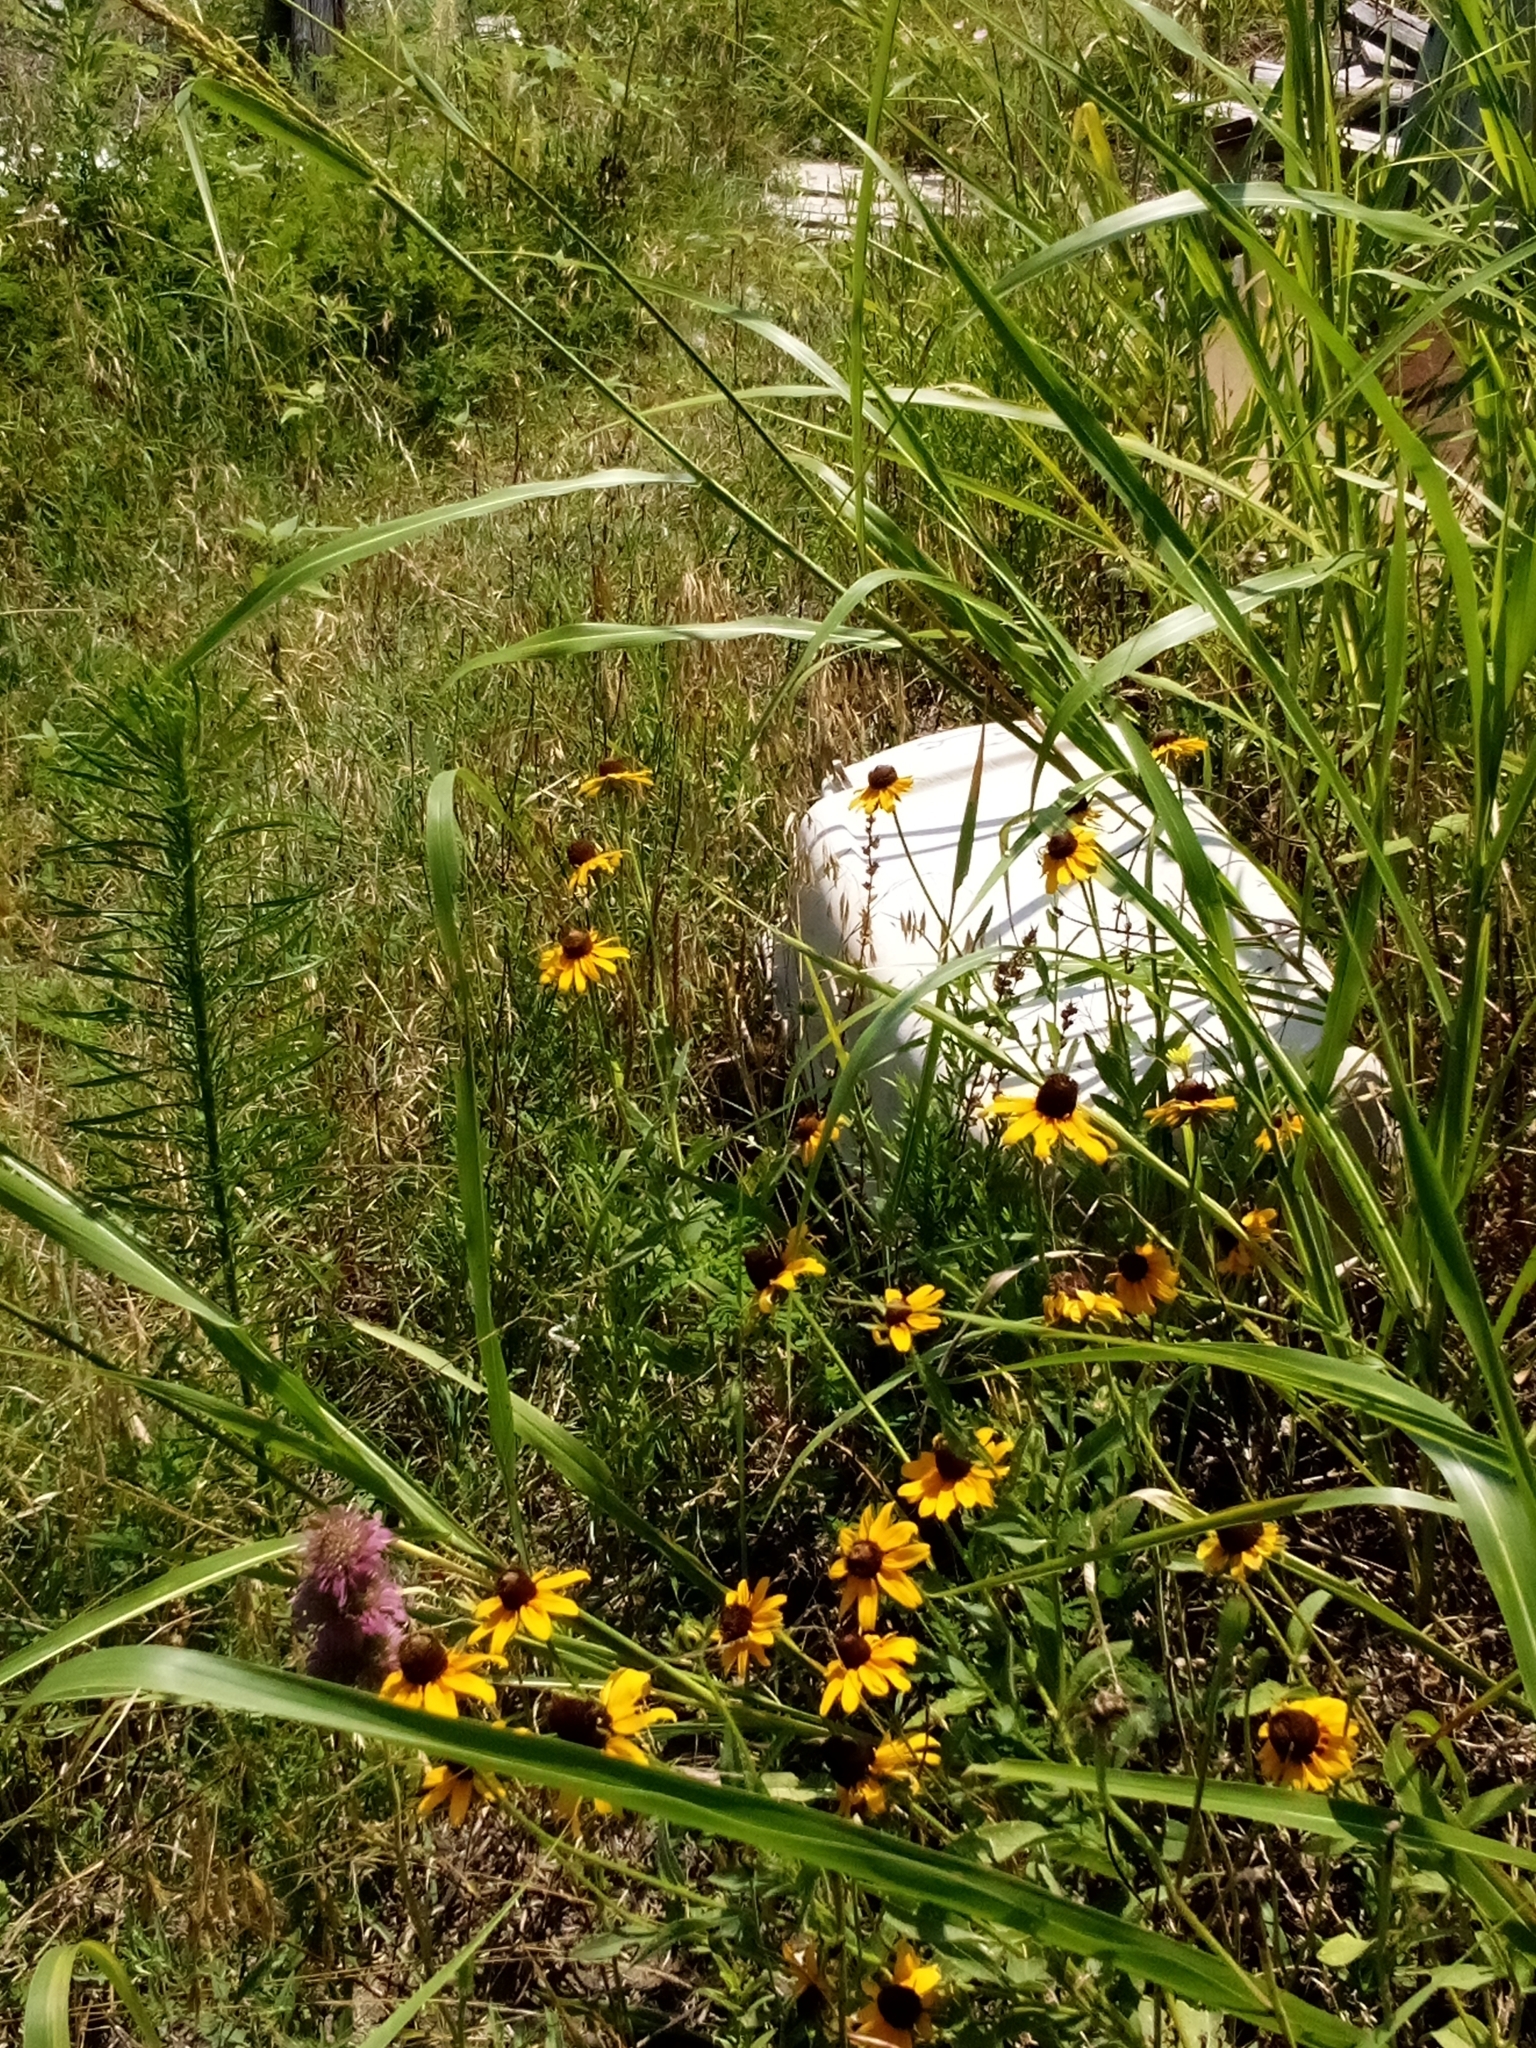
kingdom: Plantae
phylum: Tracheophyta
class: Magnoliopsida
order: Asterales
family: Asteraceae
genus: Rudbeckia
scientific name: Rudbeckia hirta
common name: Black-eyed-susan
